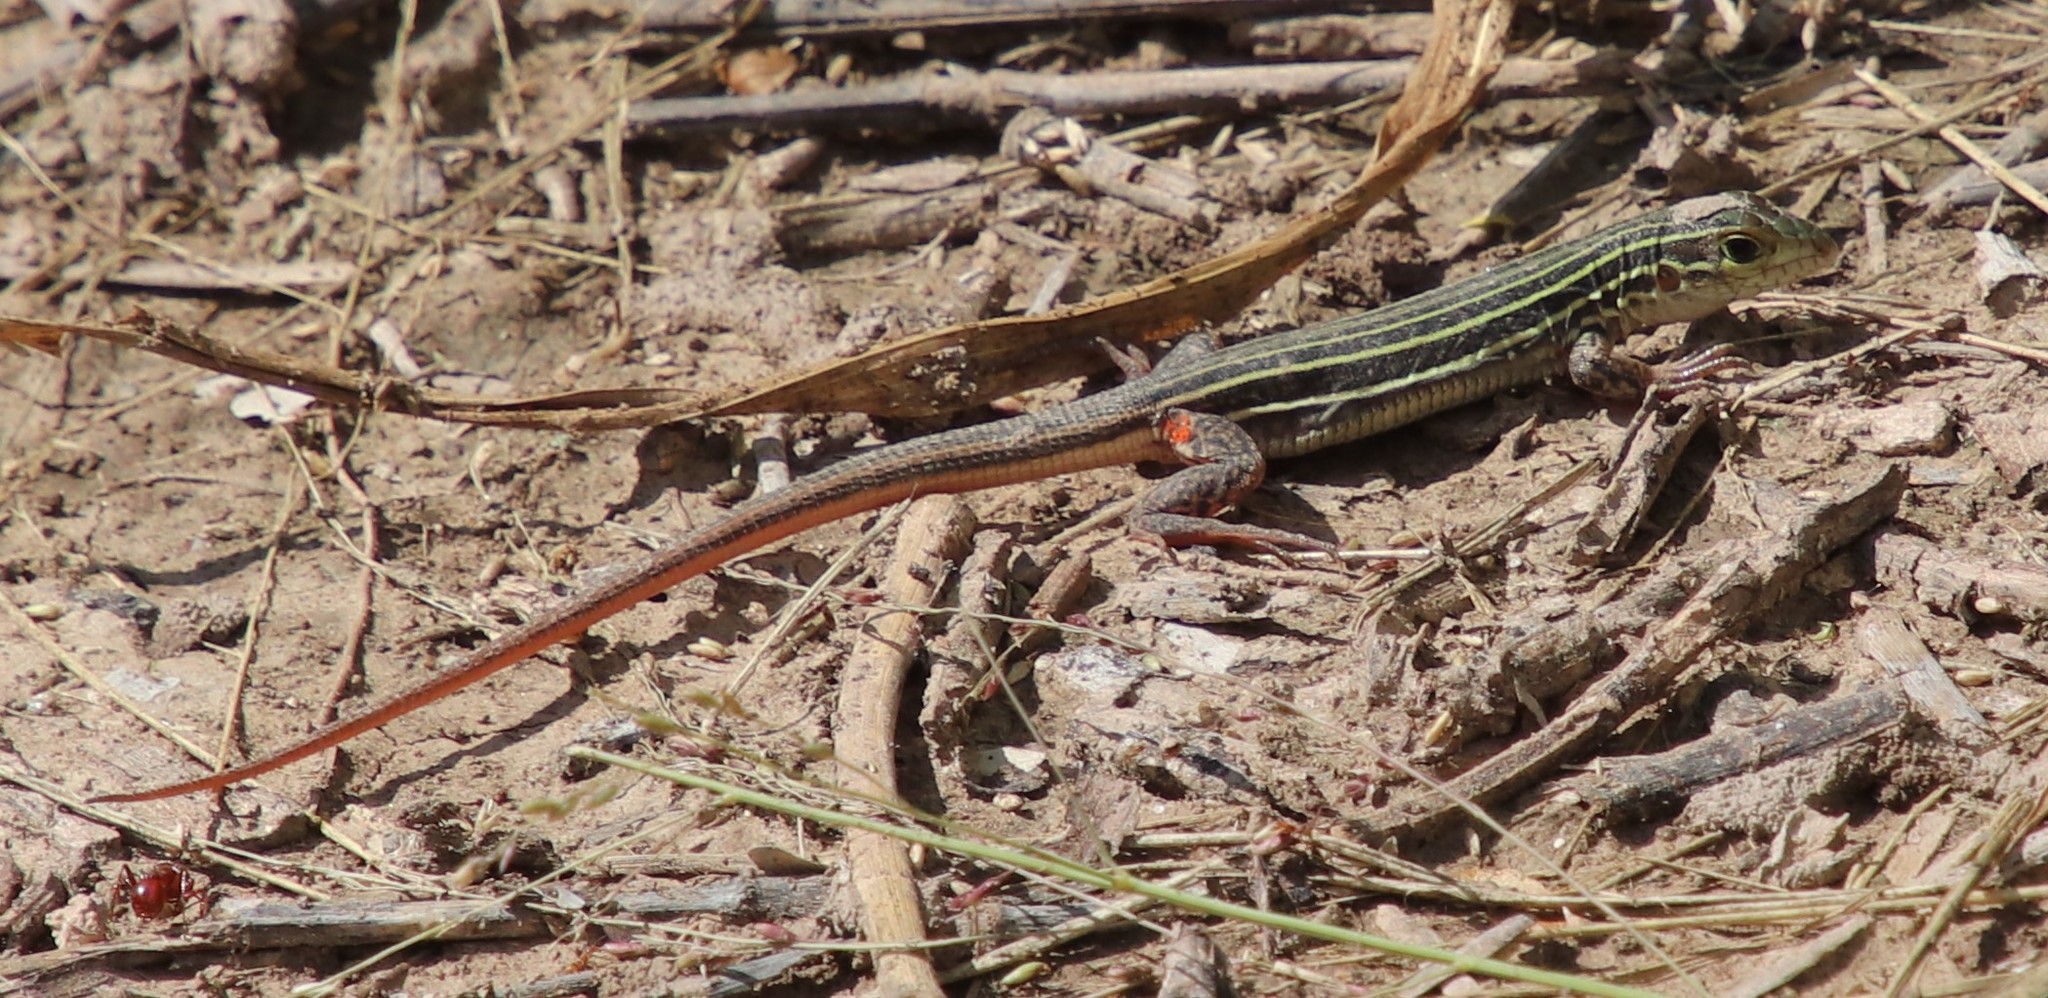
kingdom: Animalia
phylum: Chordata
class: Squamata
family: Teiidae
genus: Aspidoscelis
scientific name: Aspidoscelis gularis
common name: Eastern spotted whiptail
